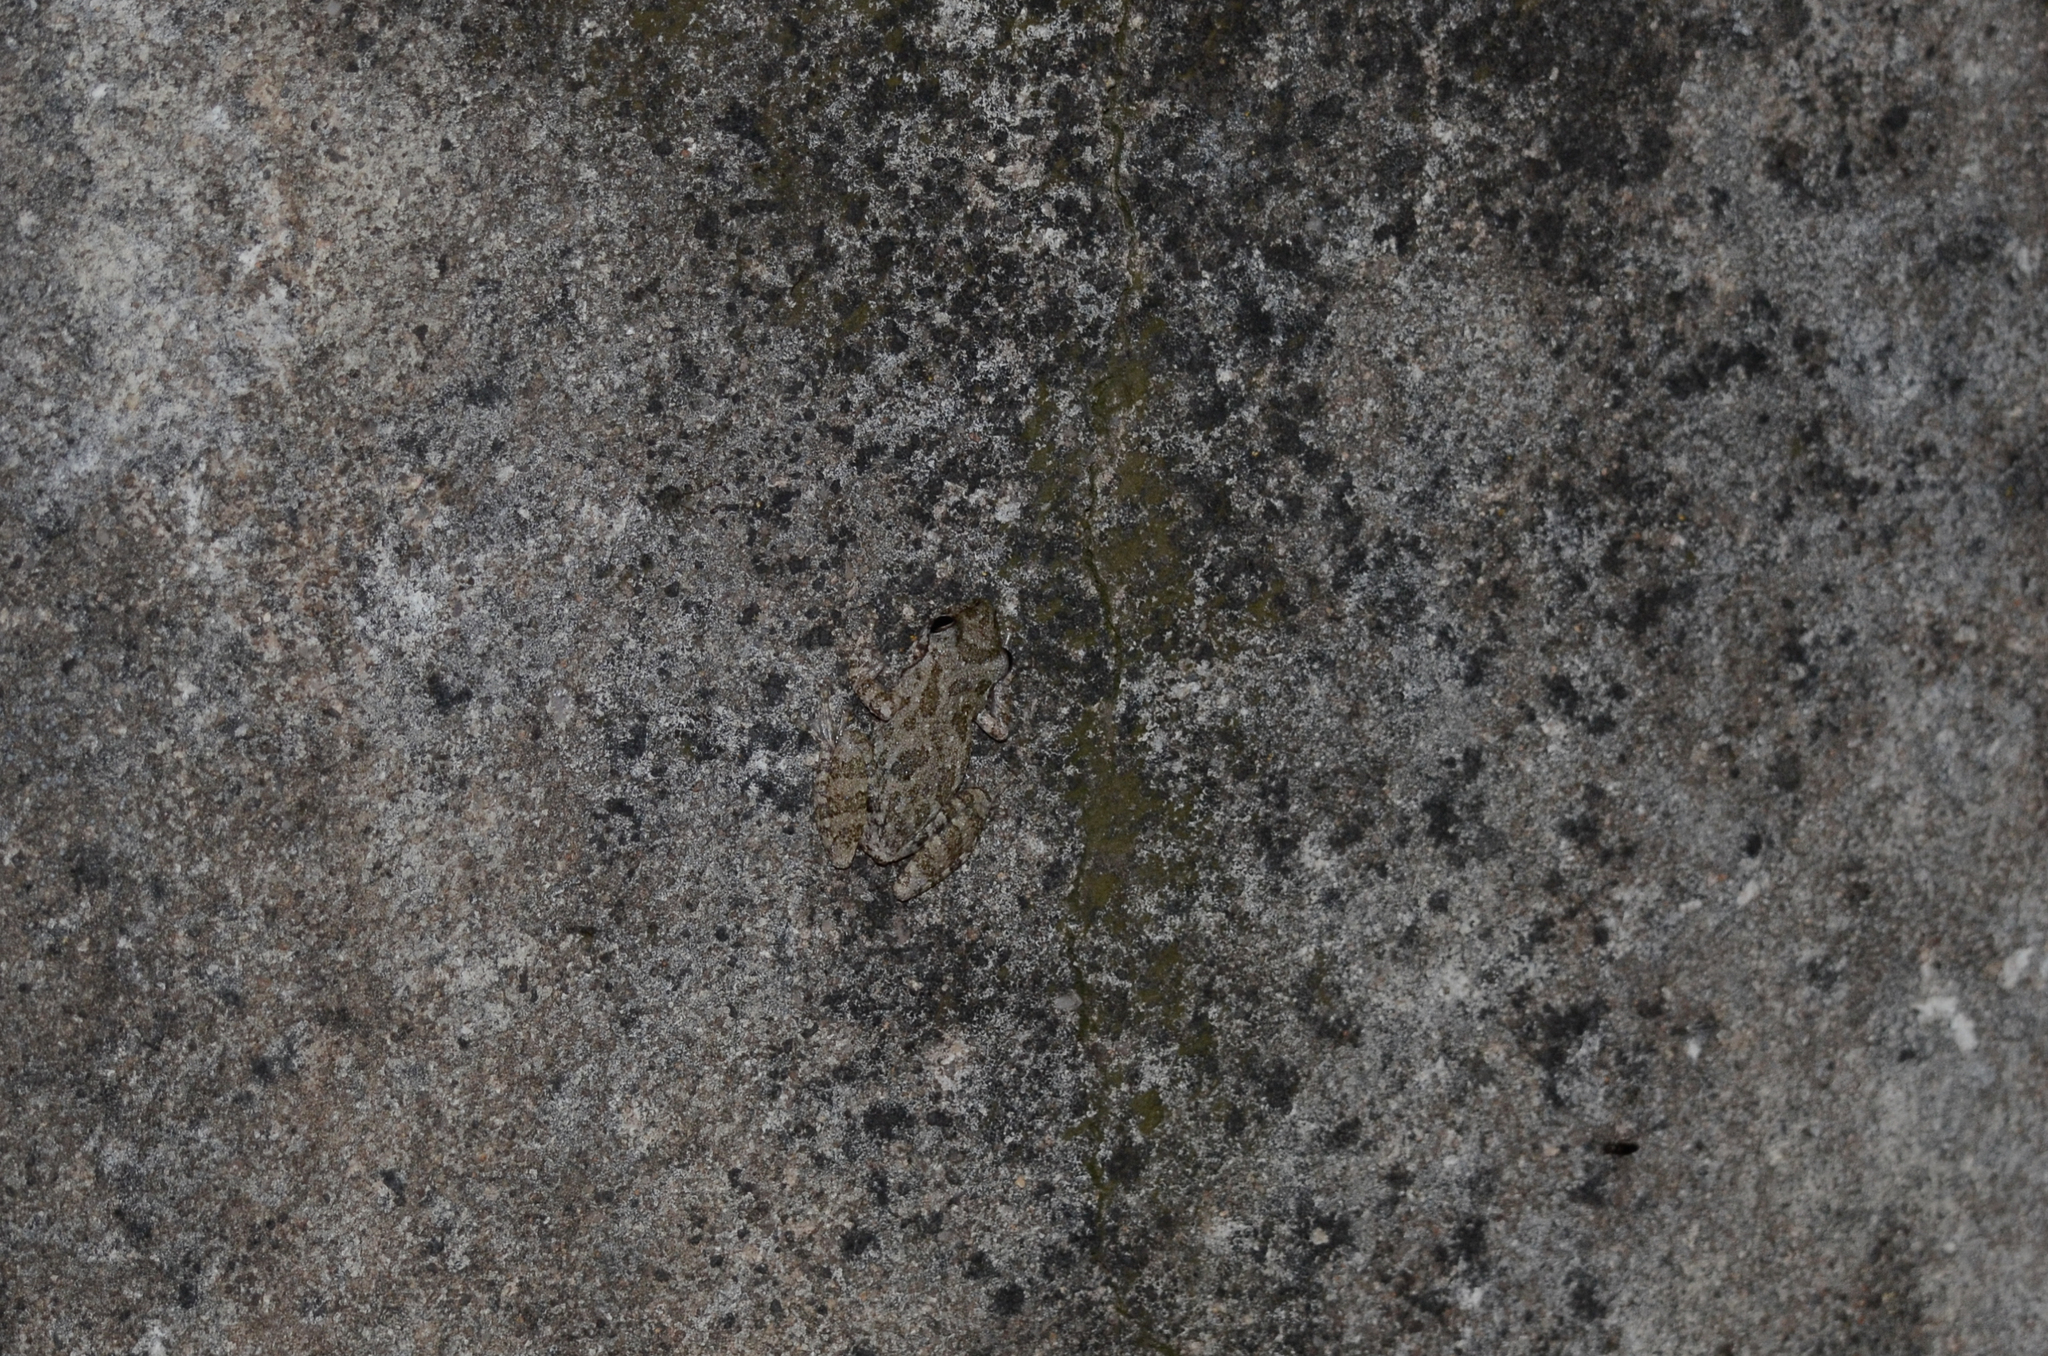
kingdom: Animalia
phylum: Chordata
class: Amphibia
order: Anura
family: Hylidae
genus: Scinax
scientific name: Scinax granulatus
